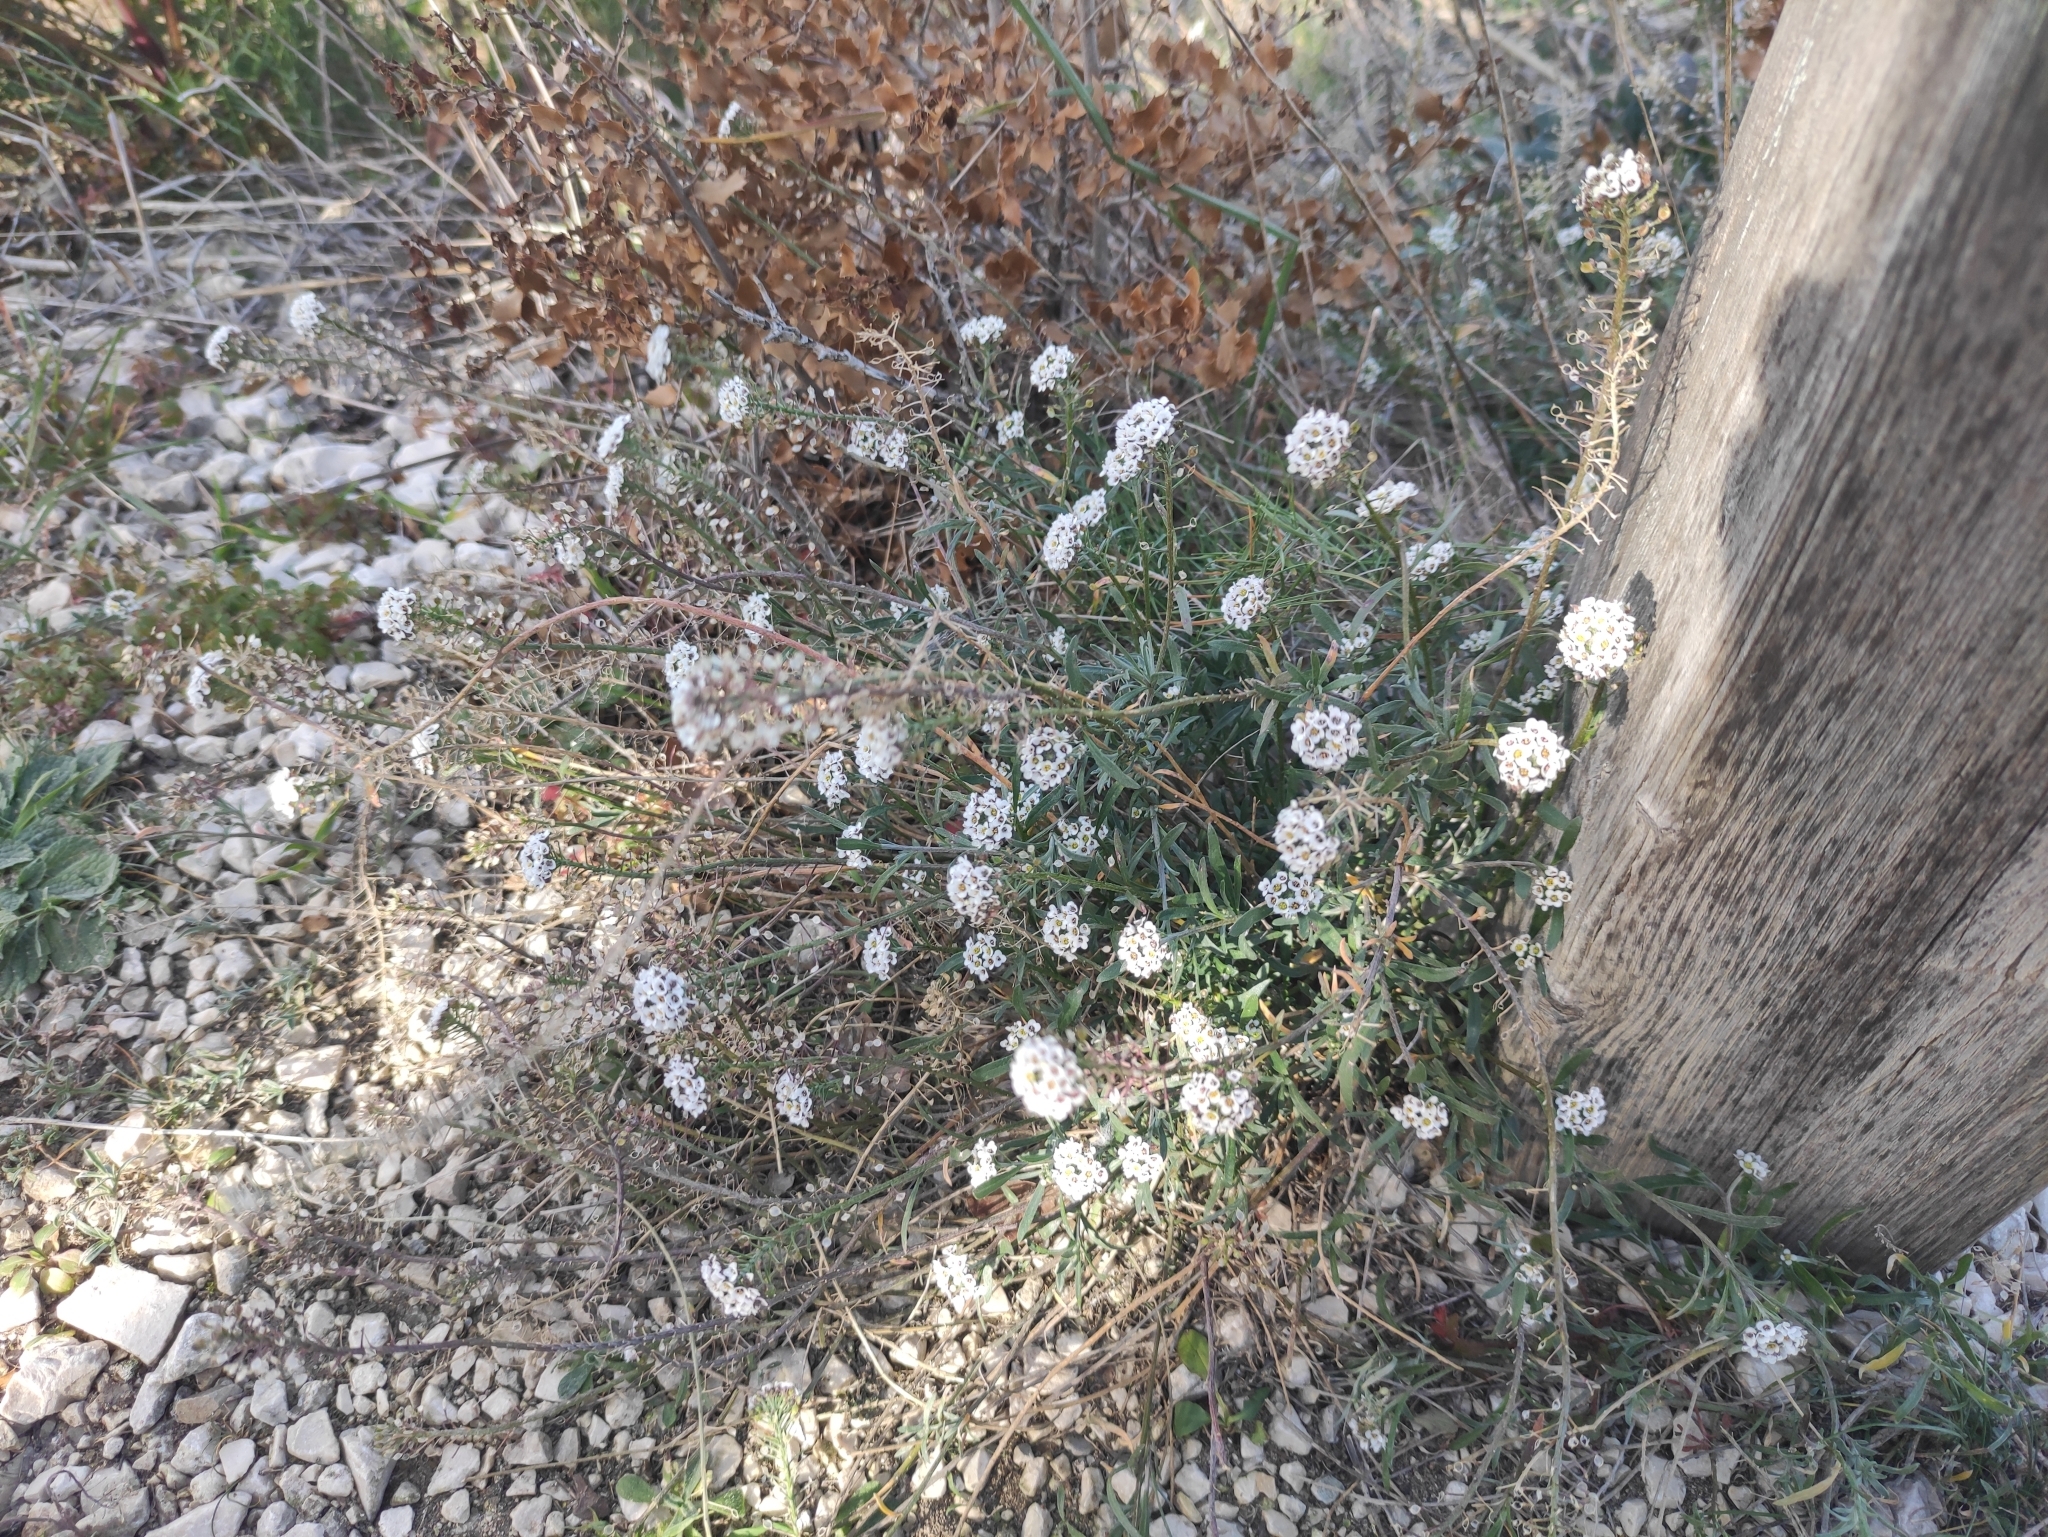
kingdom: Plantae
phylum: Tracheophyta
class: Magnoliopsida
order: Brassicales
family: Brassicaceae
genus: Lobularia
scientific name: Lobularia maritima
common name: Sweet alison
